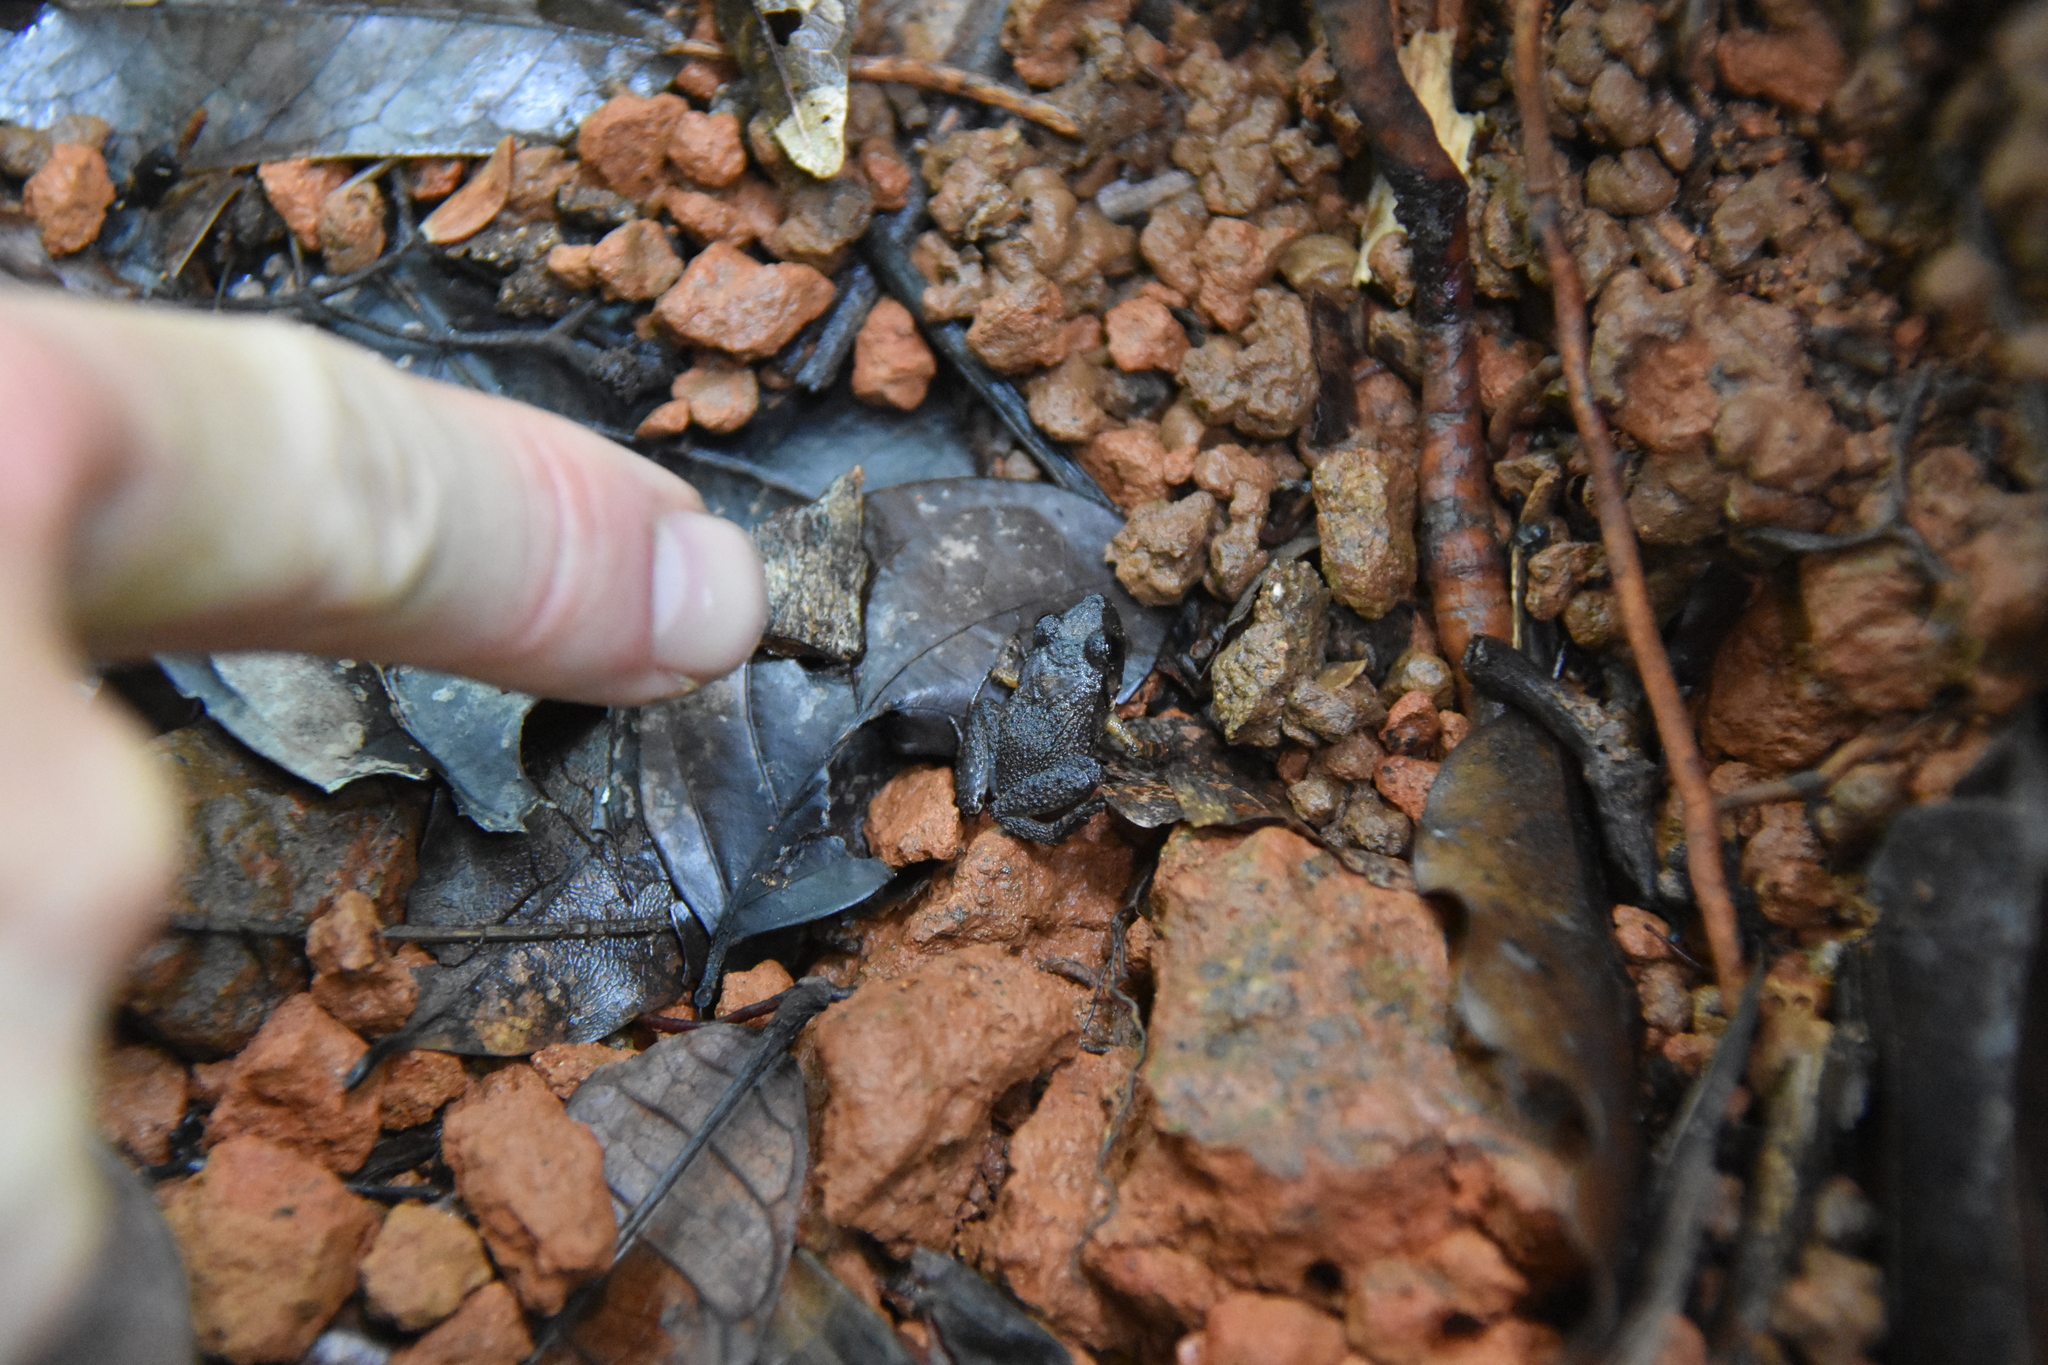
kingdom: Animalia
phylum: Chordata
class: Amphibia
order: Anura
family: Craugastoridae
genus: Craugastor
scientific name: Craugastor stejnegerianus
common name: Stejneger's robber frog
